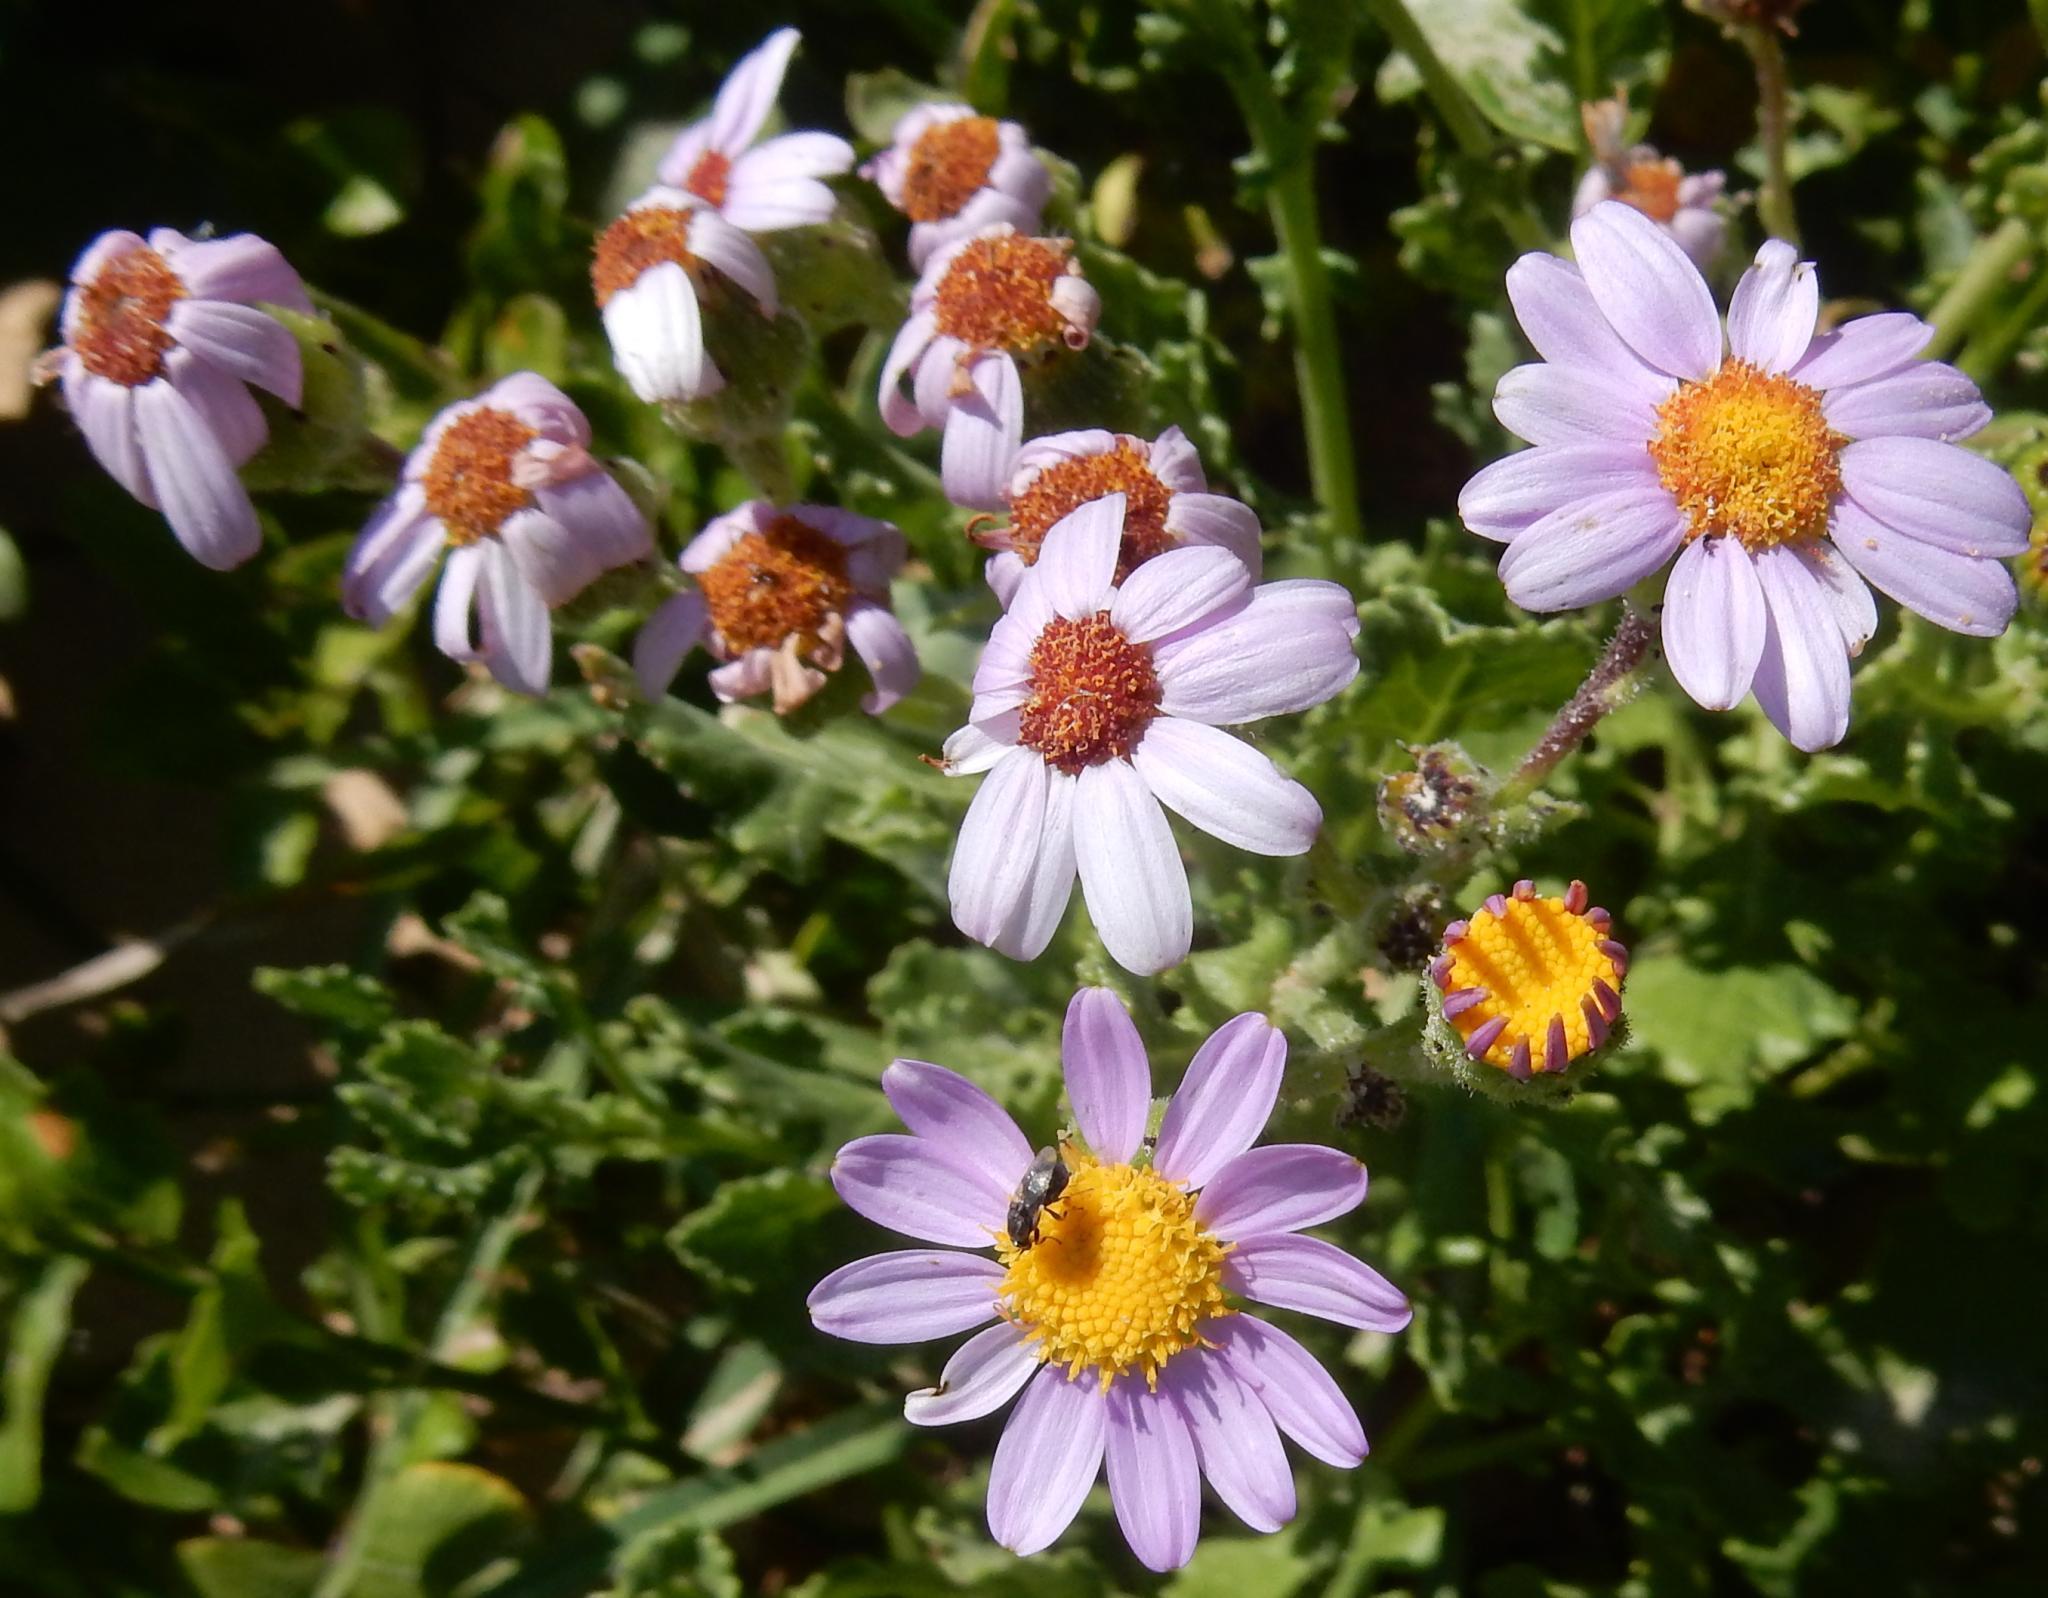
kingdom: Plantae
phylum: Tracheophyta
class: Magnoliopsida
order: Asterales
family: Asteraceae
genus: Senecio
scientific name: Senecio elegans
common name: Purple groundsel
